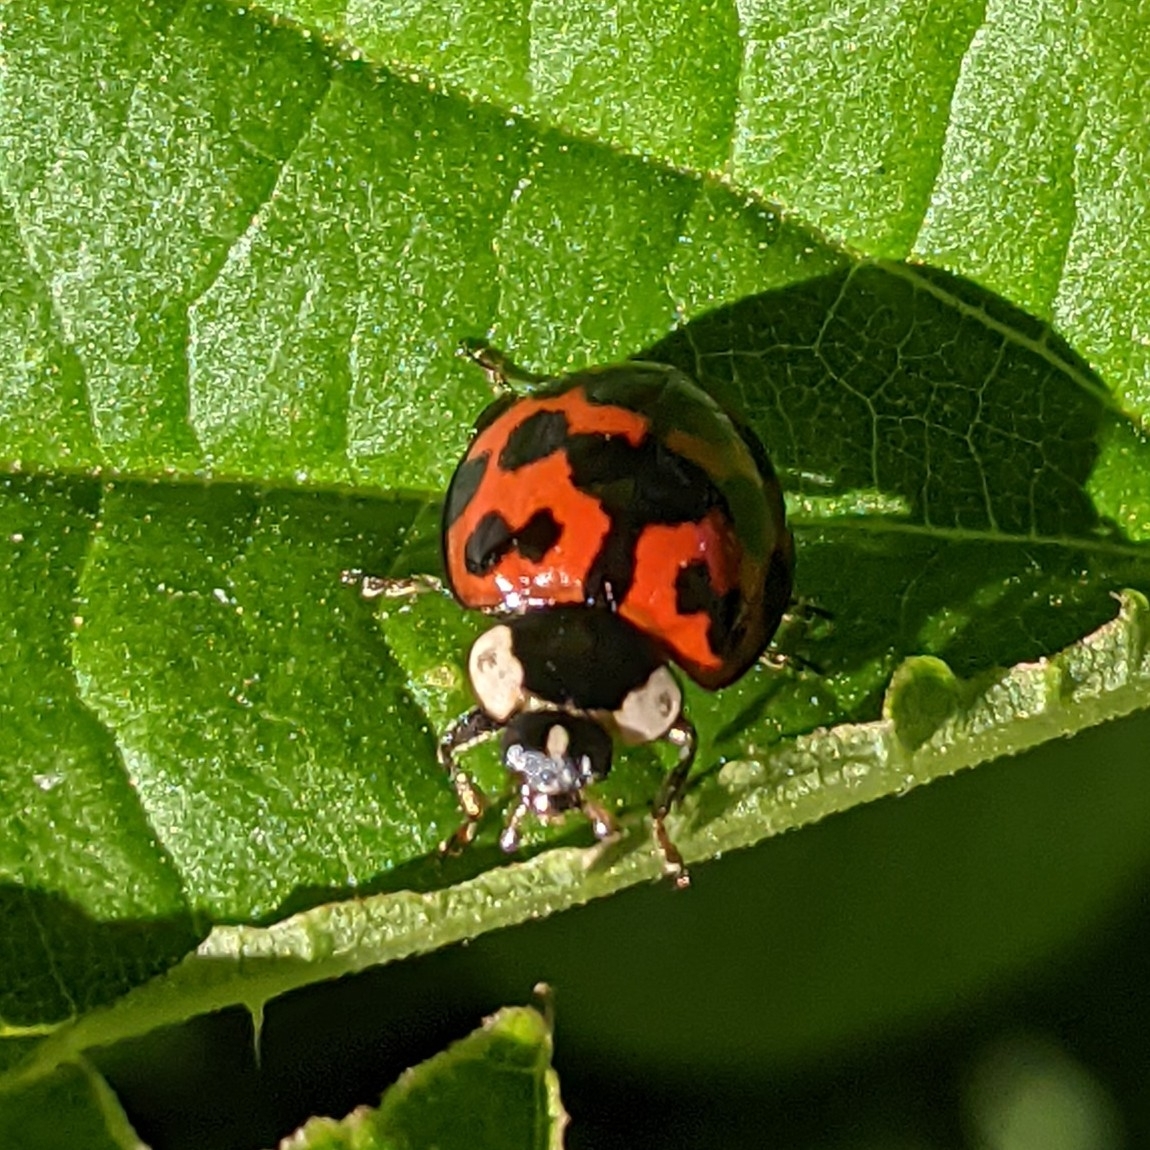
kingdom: Animalia
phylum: Arthropoda
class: Insecta
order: Coleoptera
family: Coccinellidae
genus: Harmonia
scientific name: Harmonia axyridis
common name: Harlequin ladybird
